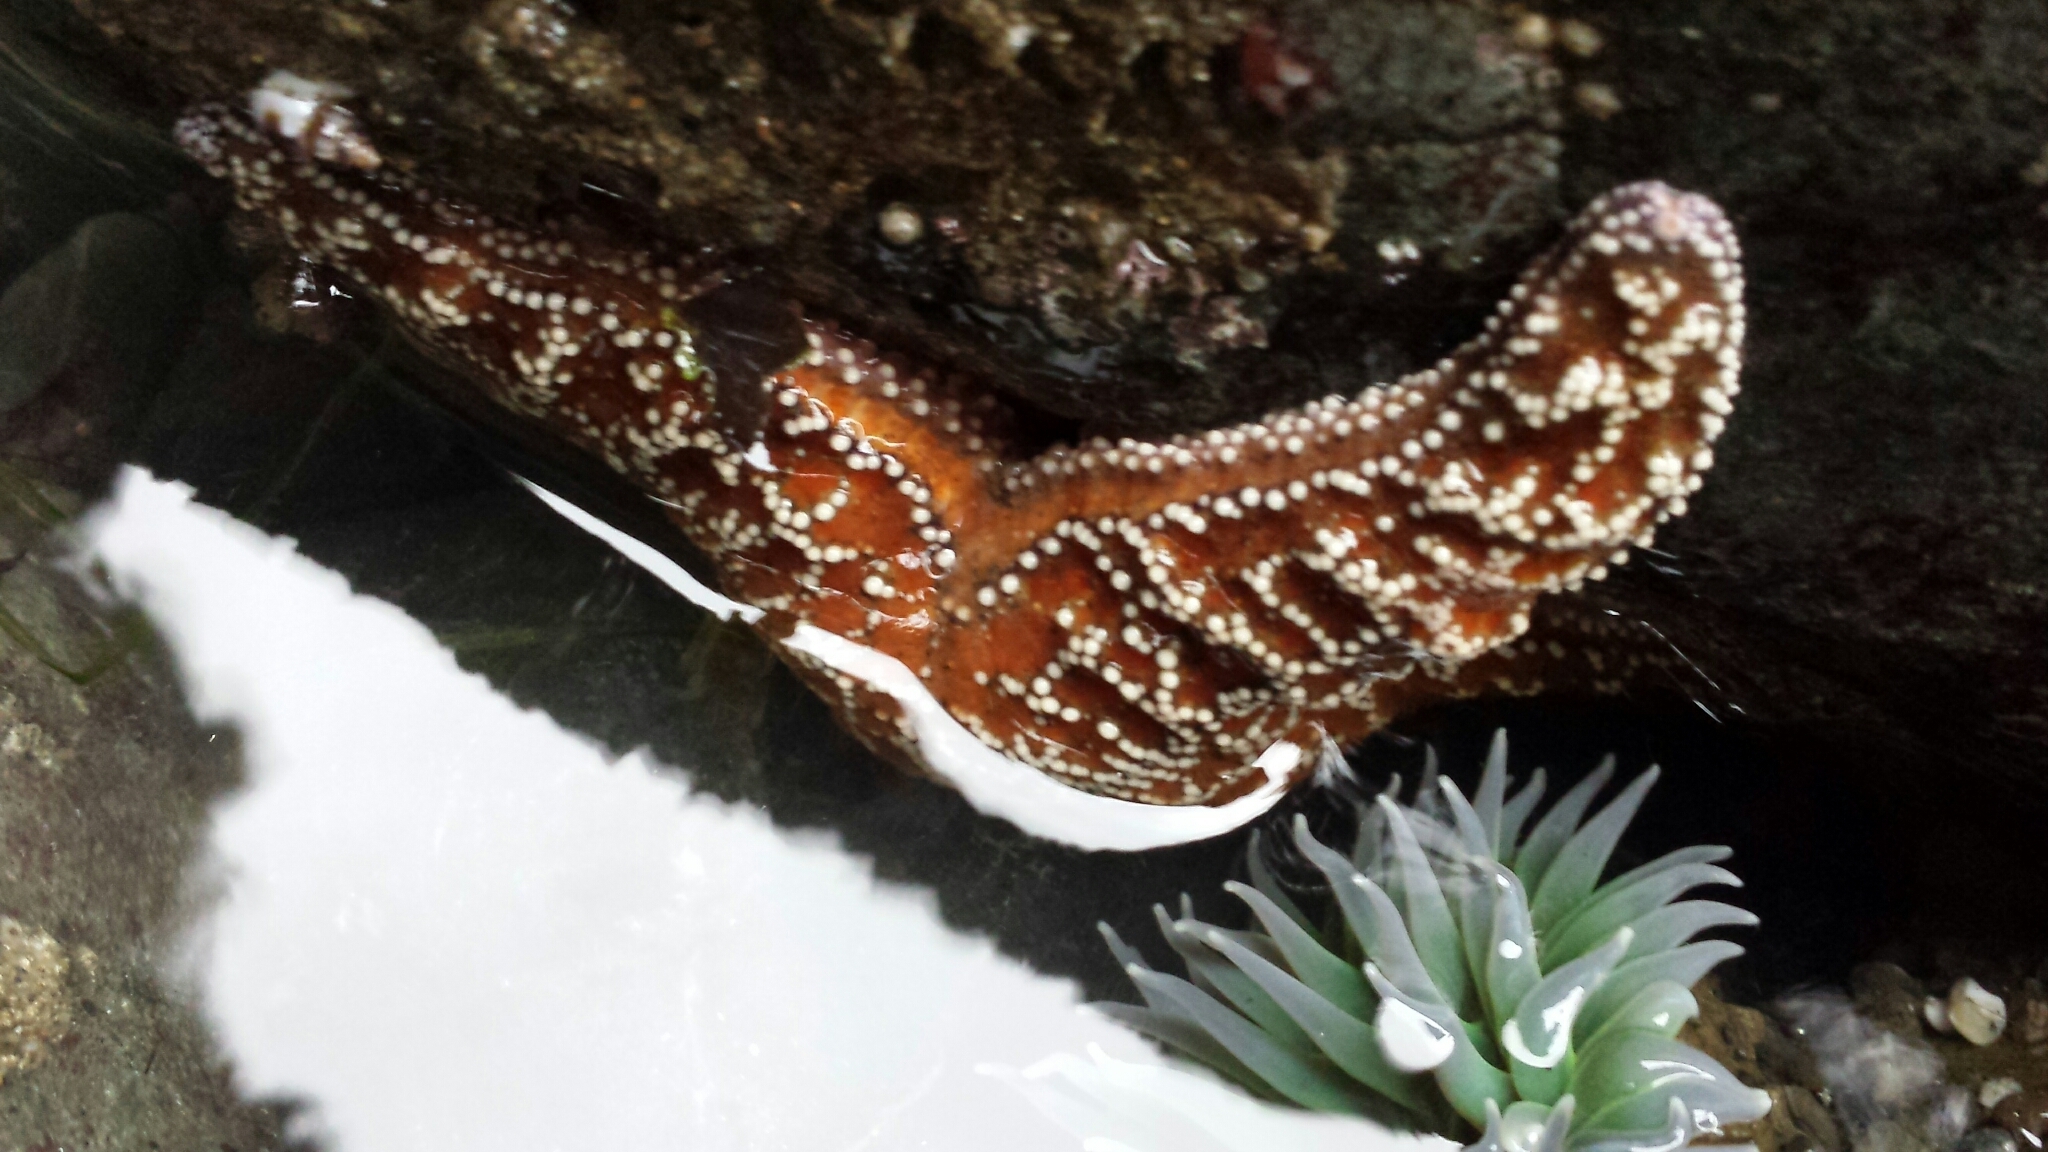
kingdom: Animalia
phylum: Echinodermata
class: Asteroidea
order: Forcipulatida
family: Asteriidae
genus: Pisaster
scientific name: Pisaster ochraceus
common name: Ochre stars
